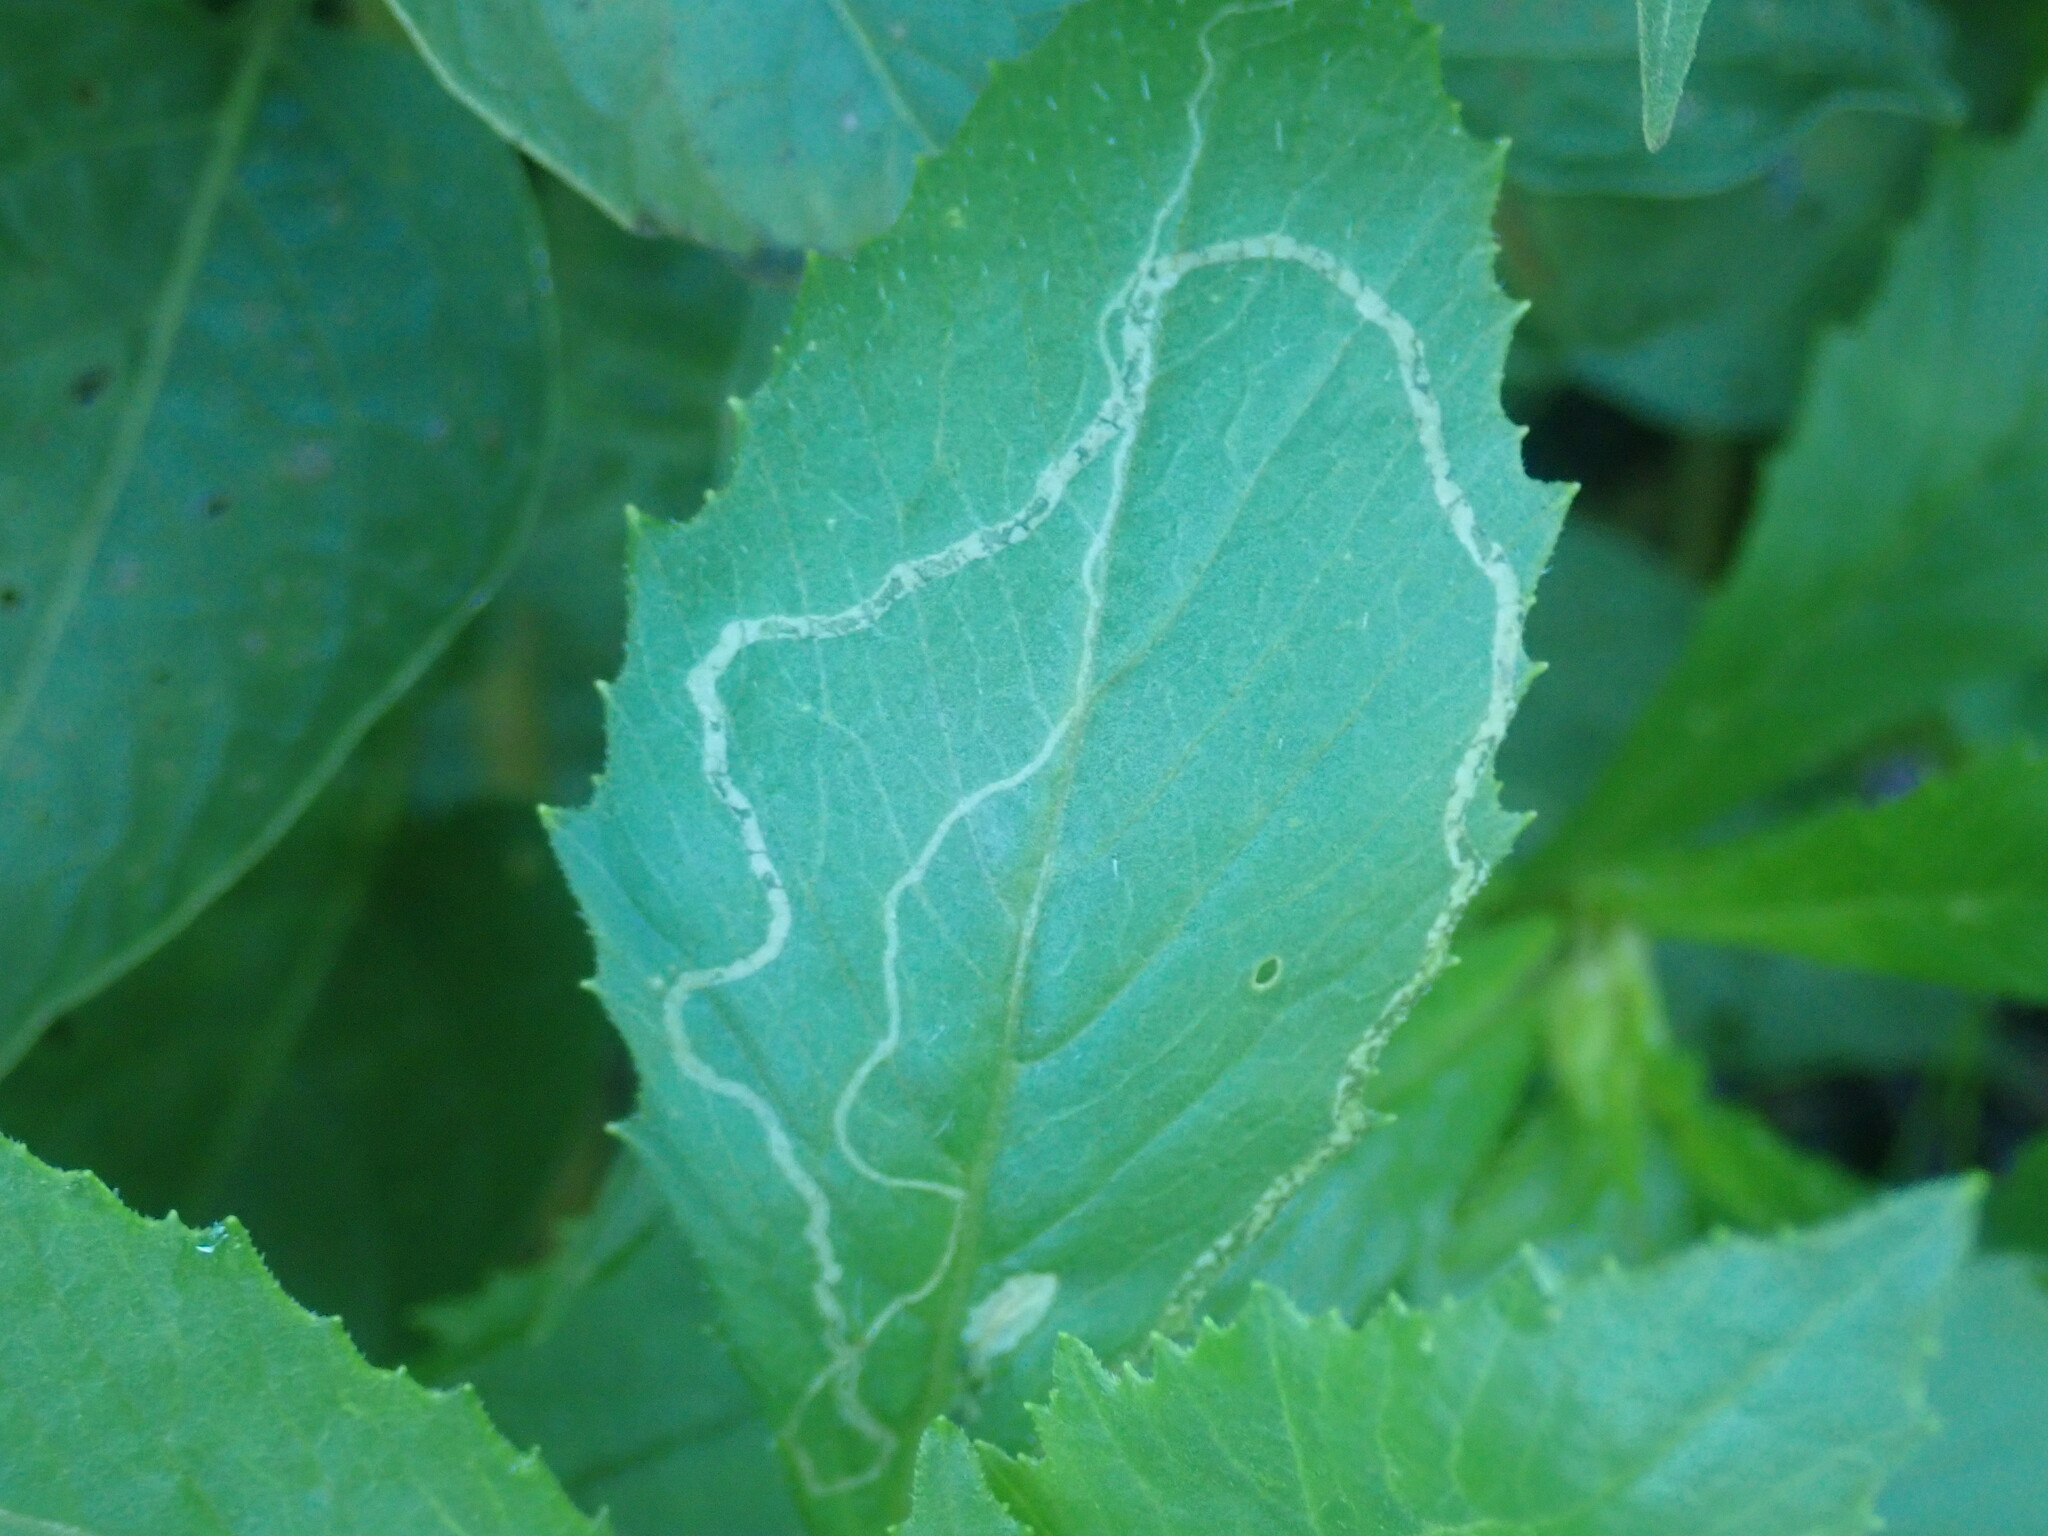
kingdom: Animalia
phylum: Arthropoda
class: Insecta
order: Lepidoptera
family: Gracillariidae
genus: Phyllocnistis
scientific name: Phyllocnistis insignis
